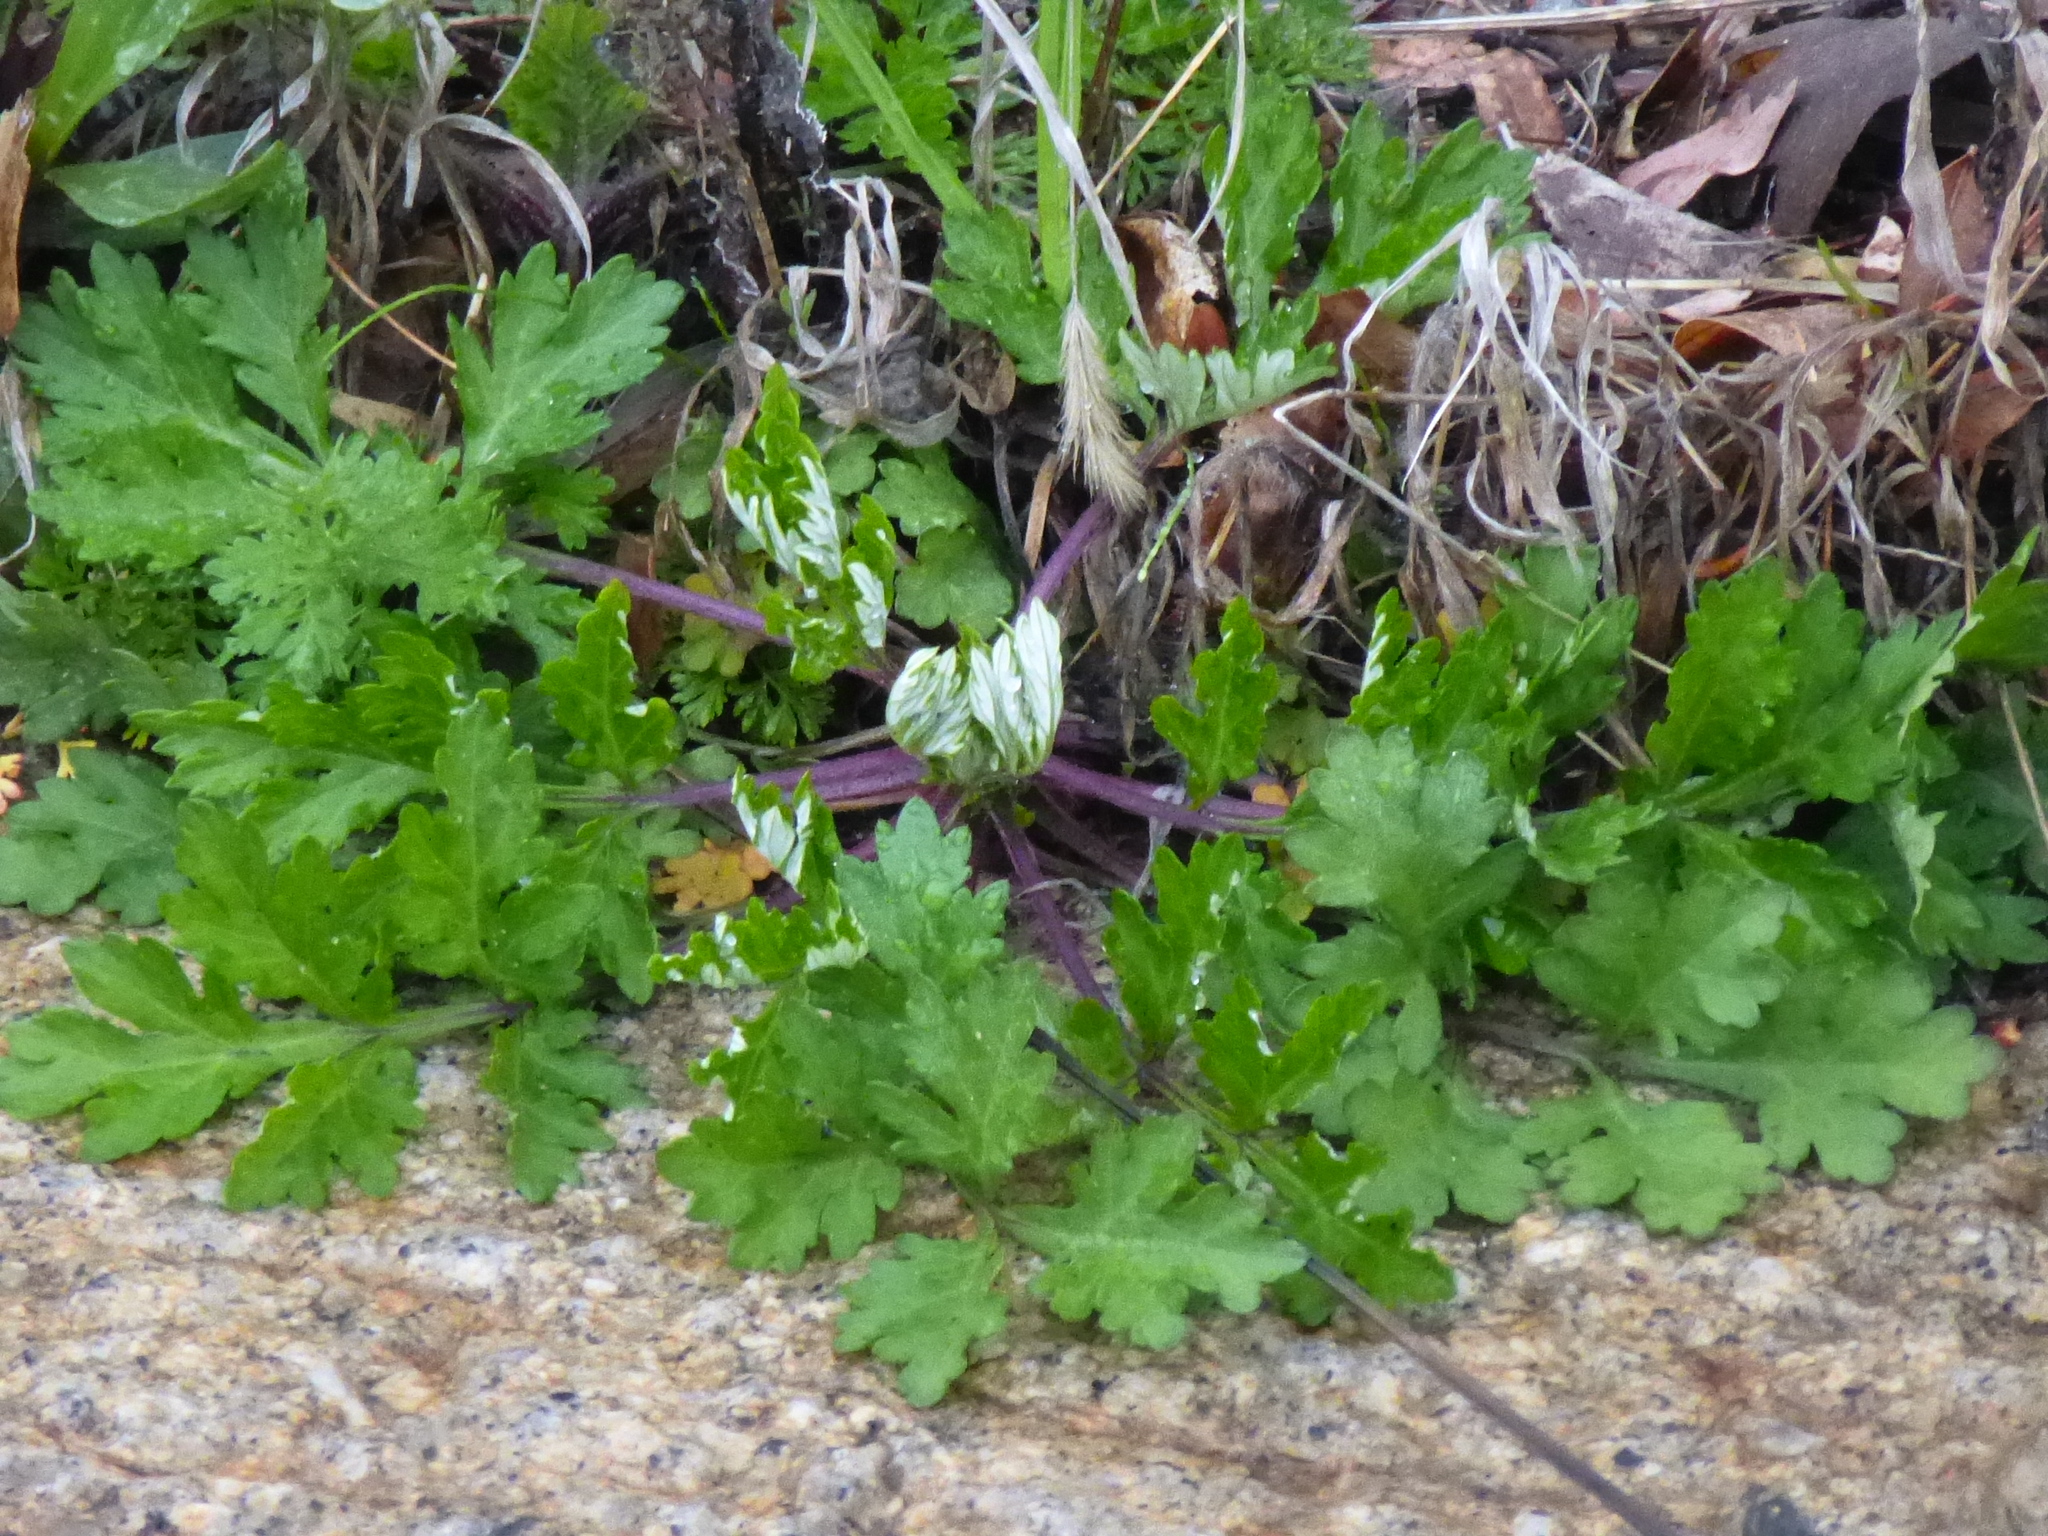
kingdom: Plantae
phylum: Tracheophyta
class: Magnoliopsida
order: Asterales
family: Asteraceae
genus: Artemisia
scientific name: Artemisia vulgaris
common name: Mugwort
